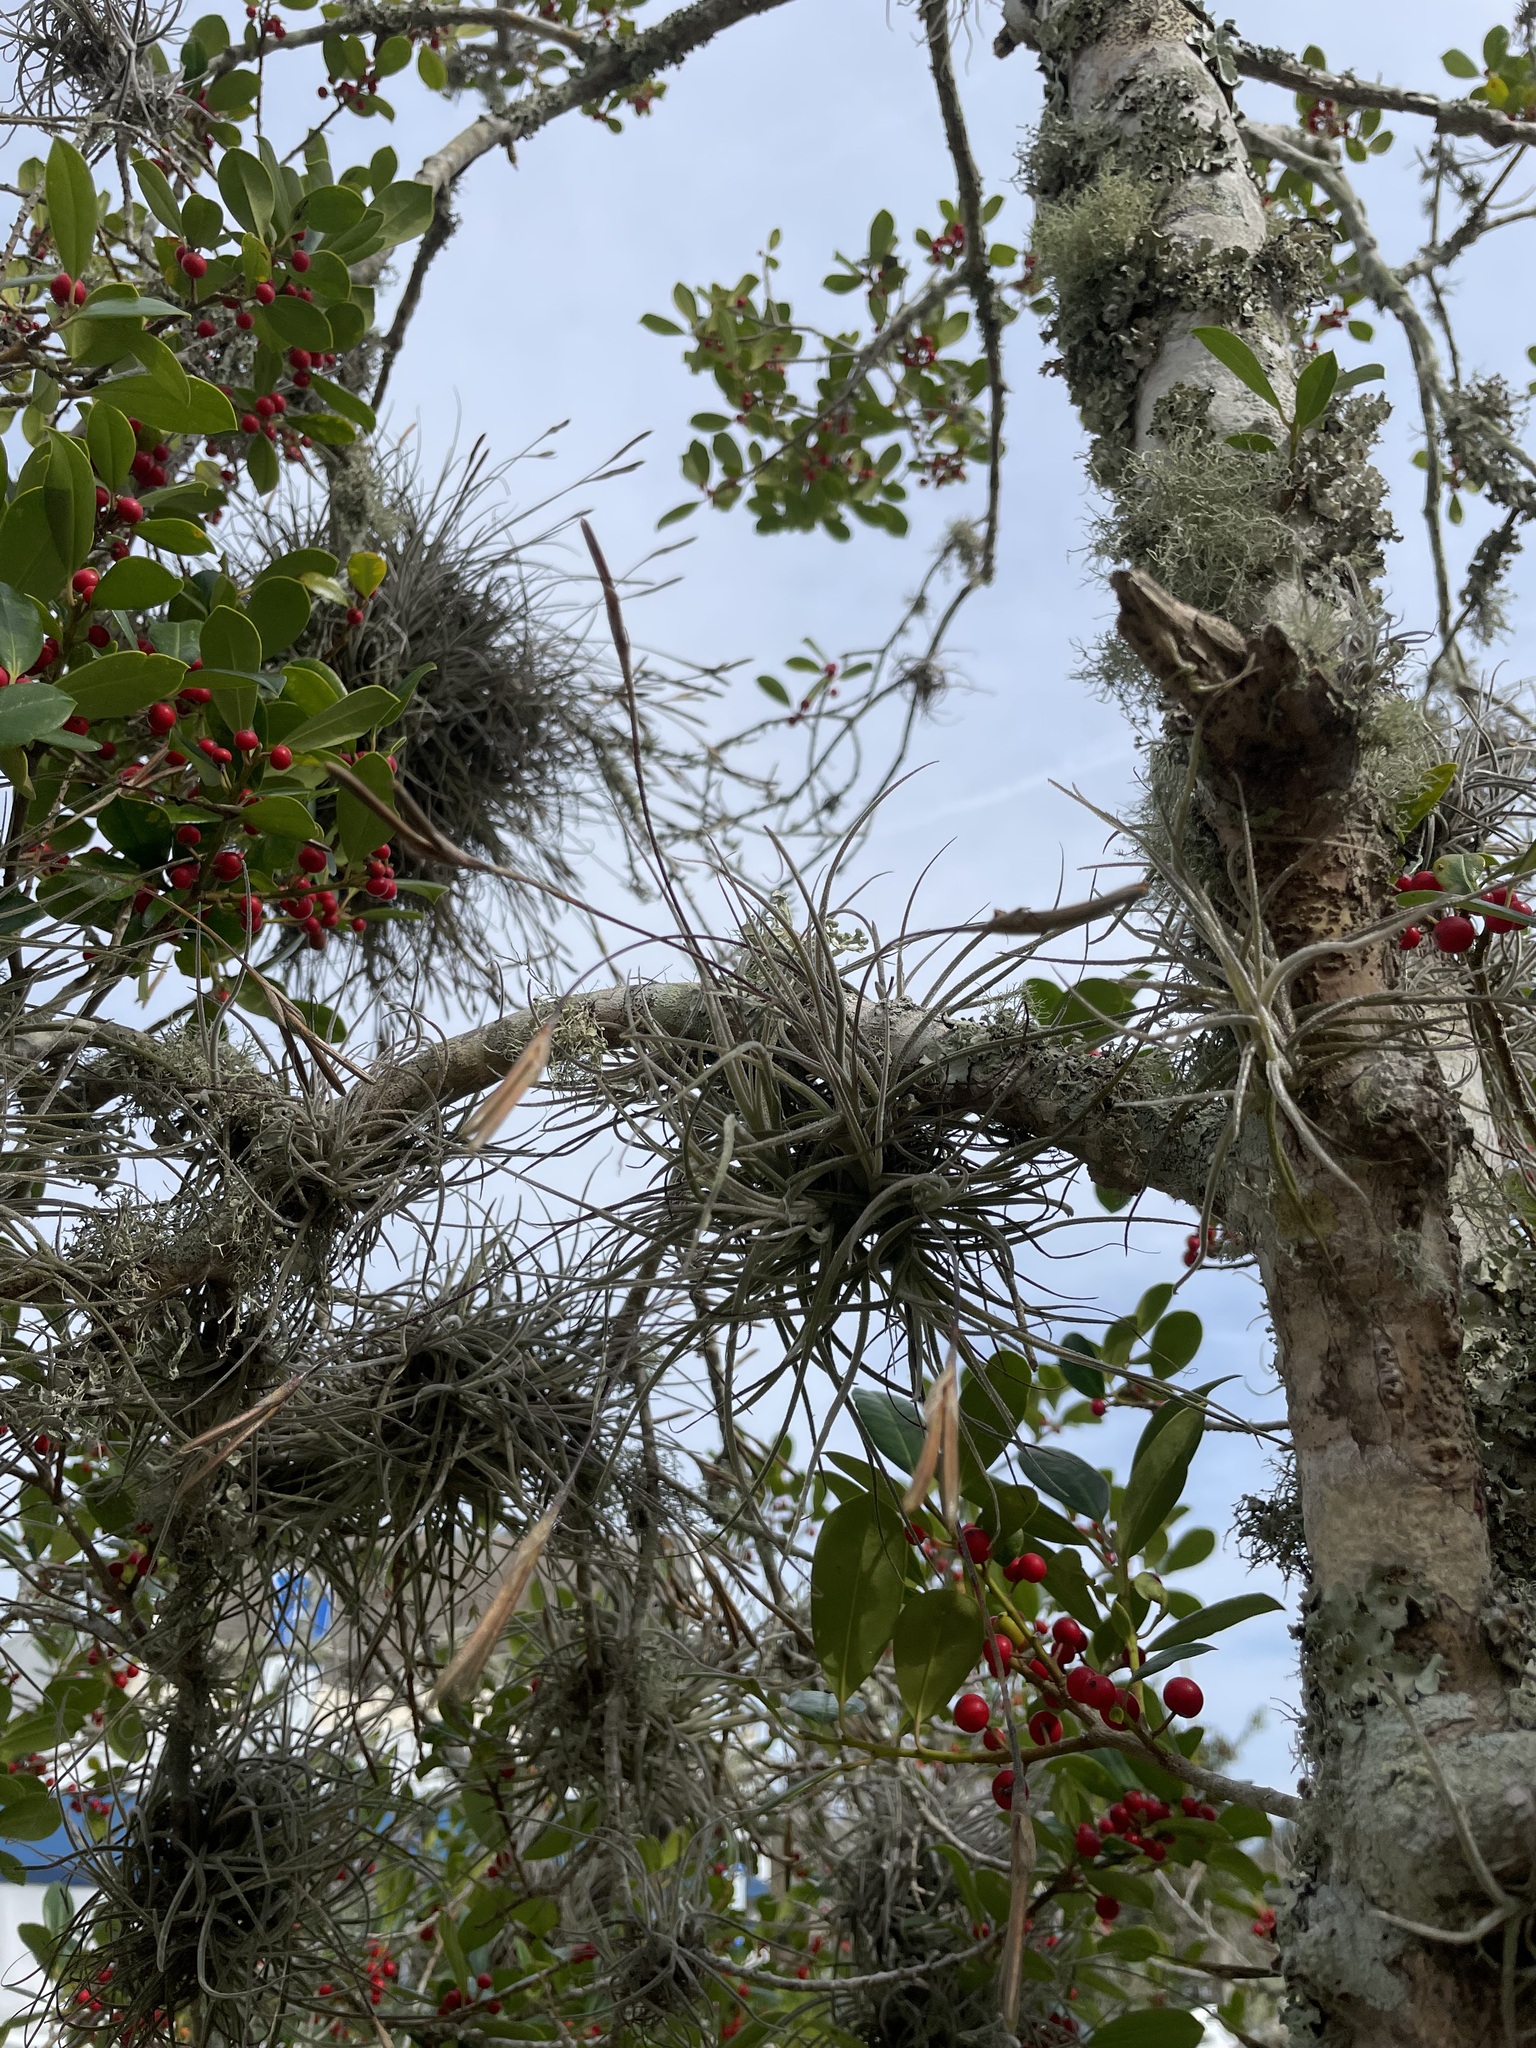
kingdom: Plantae
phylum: Tracheophyta
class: Liliopsida
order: Poales
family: Bromeliaceae
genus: Tillandsia
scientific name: Tillandsia recurvata
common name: Small ballmoss
